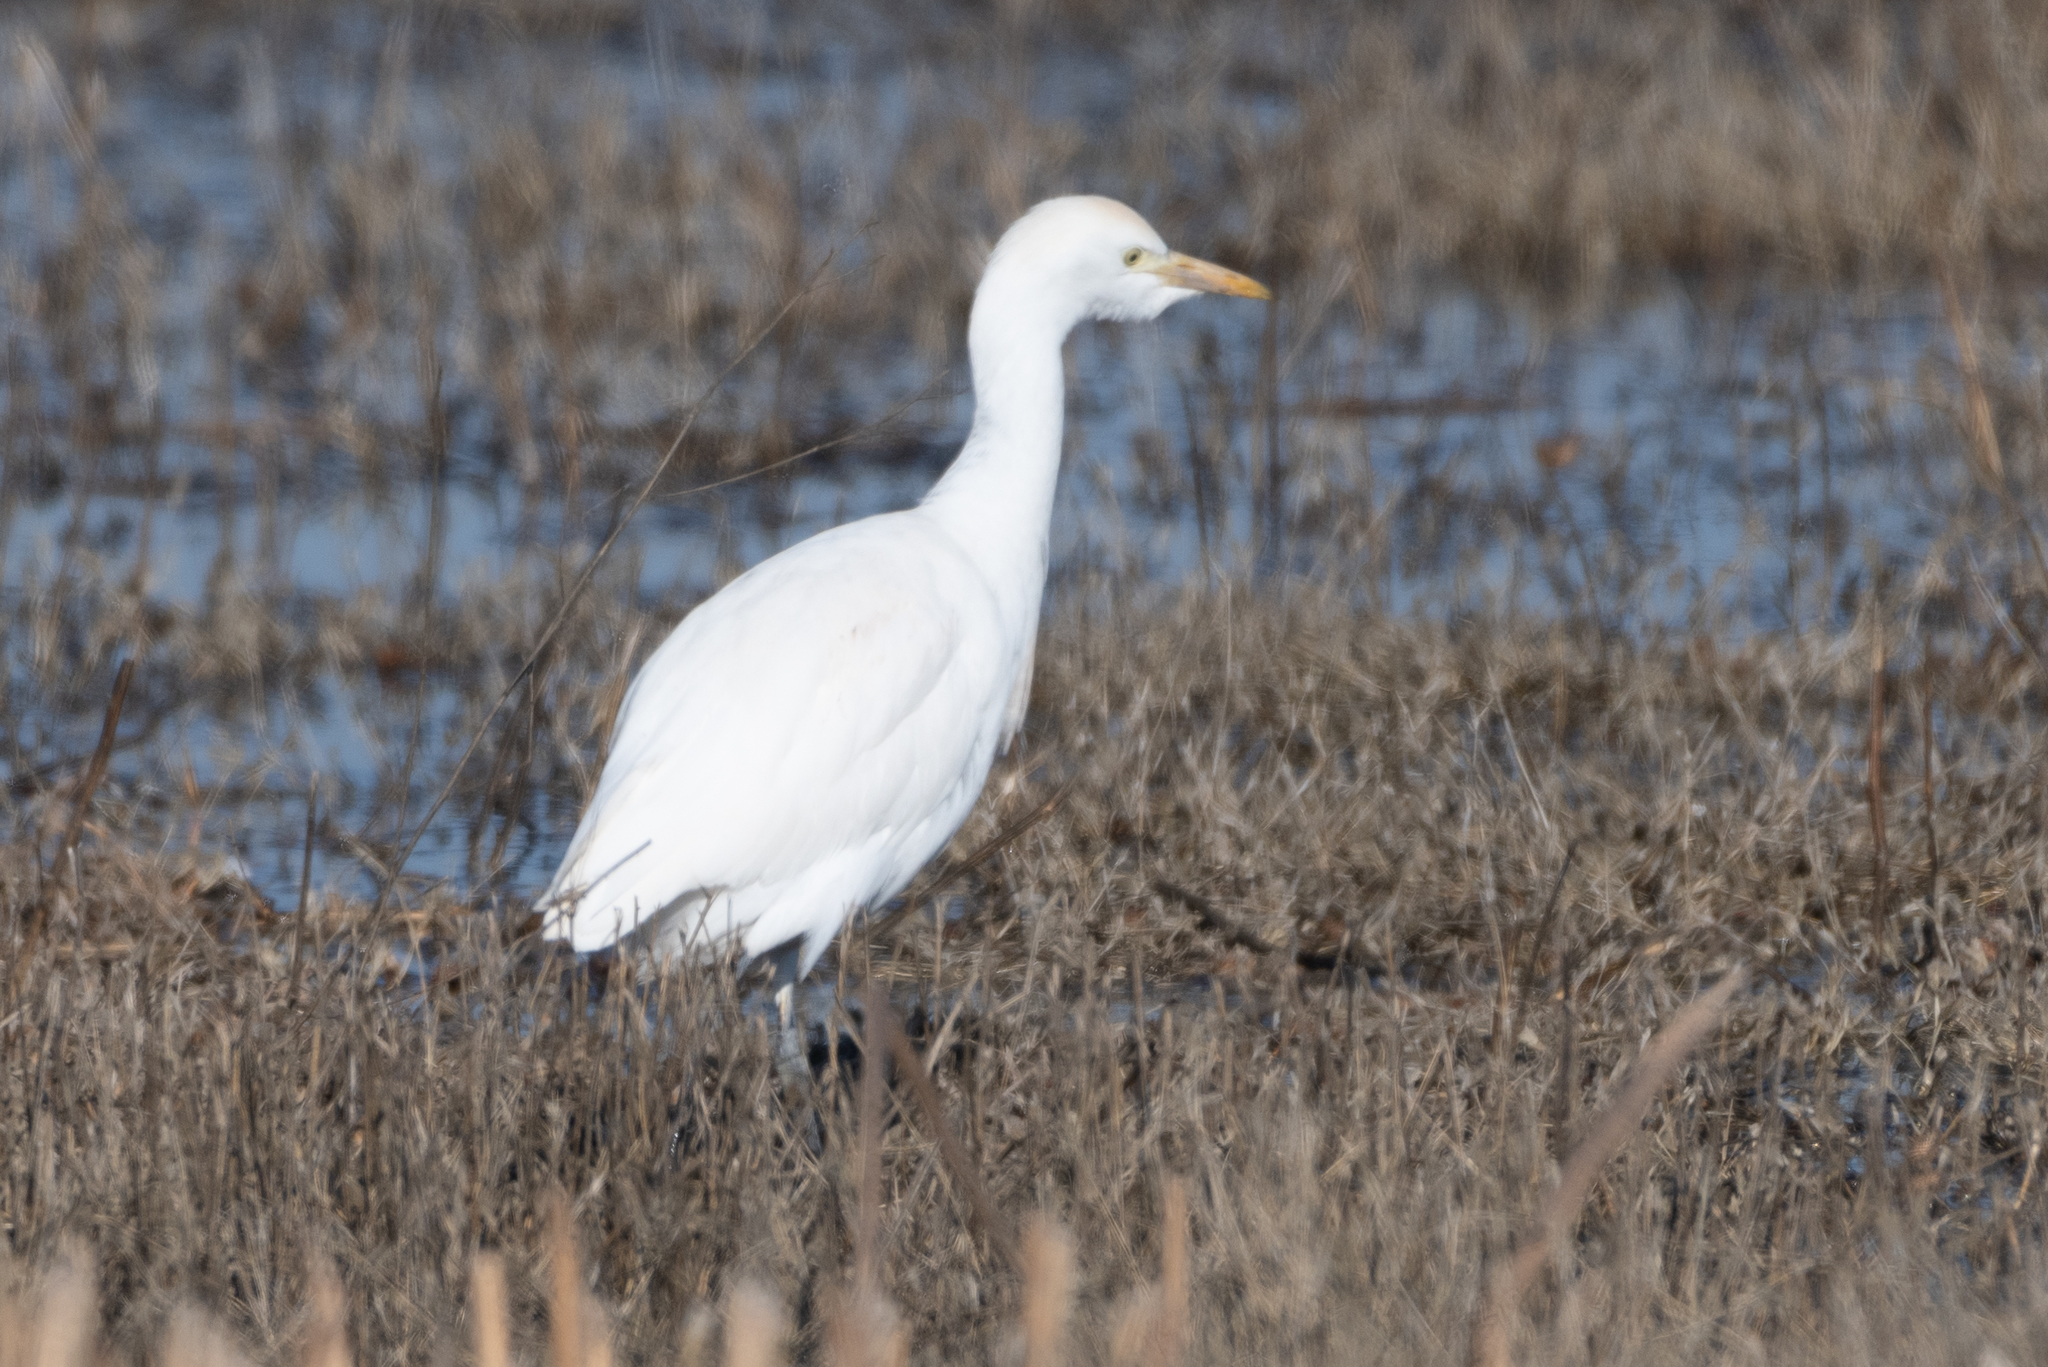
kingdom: Animalia
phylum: Chordata
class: Aves
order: Pelecaniformes
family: Ardeidae
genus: Bubulcus
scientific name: Bubulcus ibis
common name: Cattle egret
